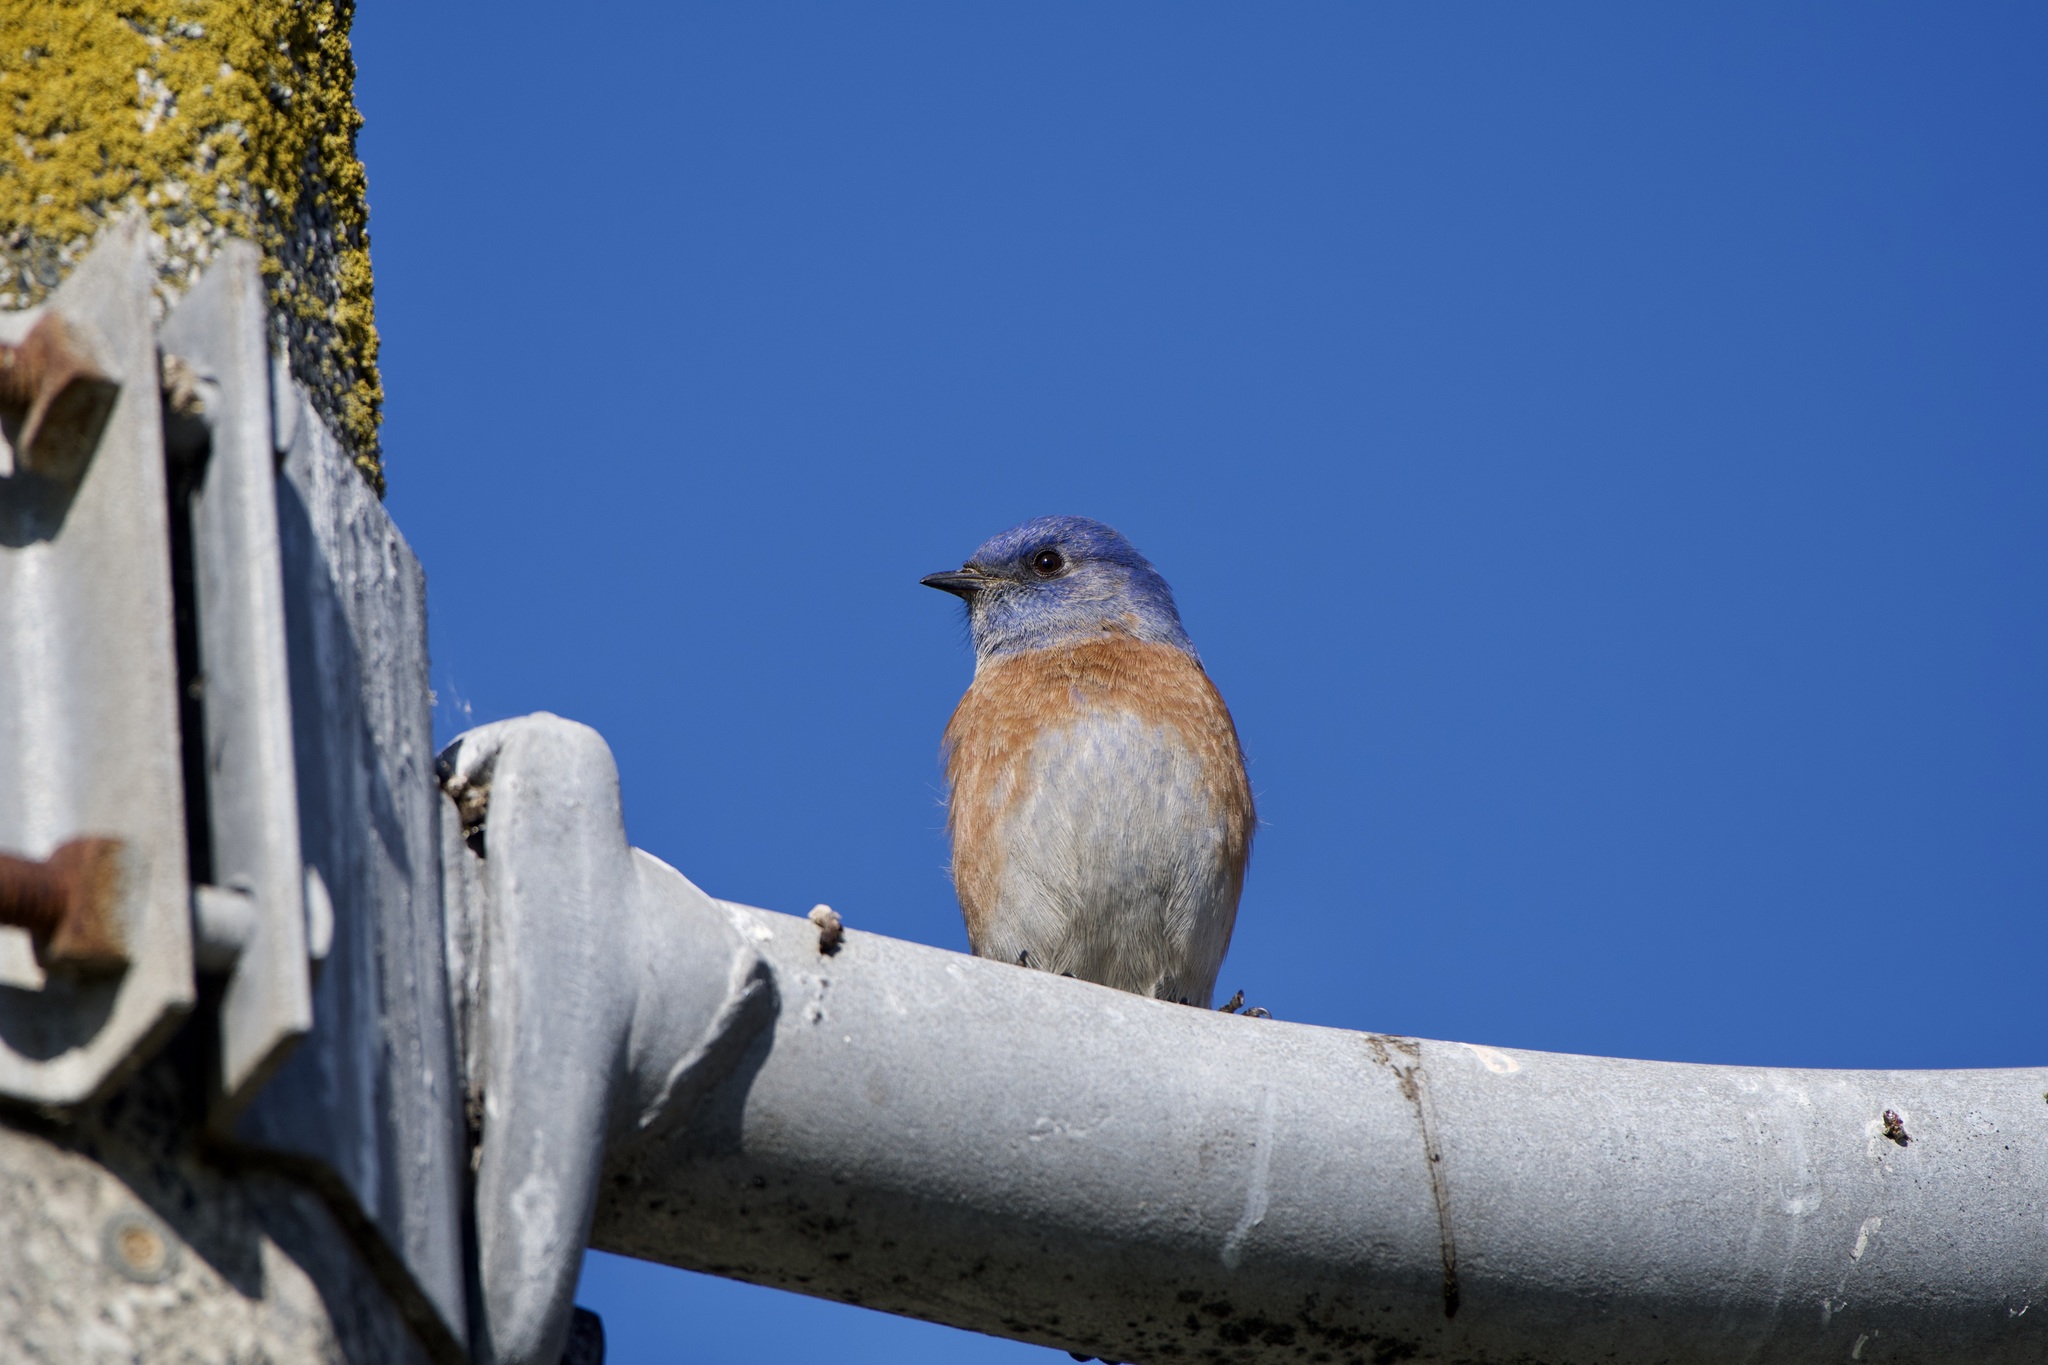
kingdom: Animalia
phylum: Chordata
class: Aves
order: Passeriformes
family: Turdidae
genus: Sialia
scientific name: Sialia mexicana
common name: Western bluebird
